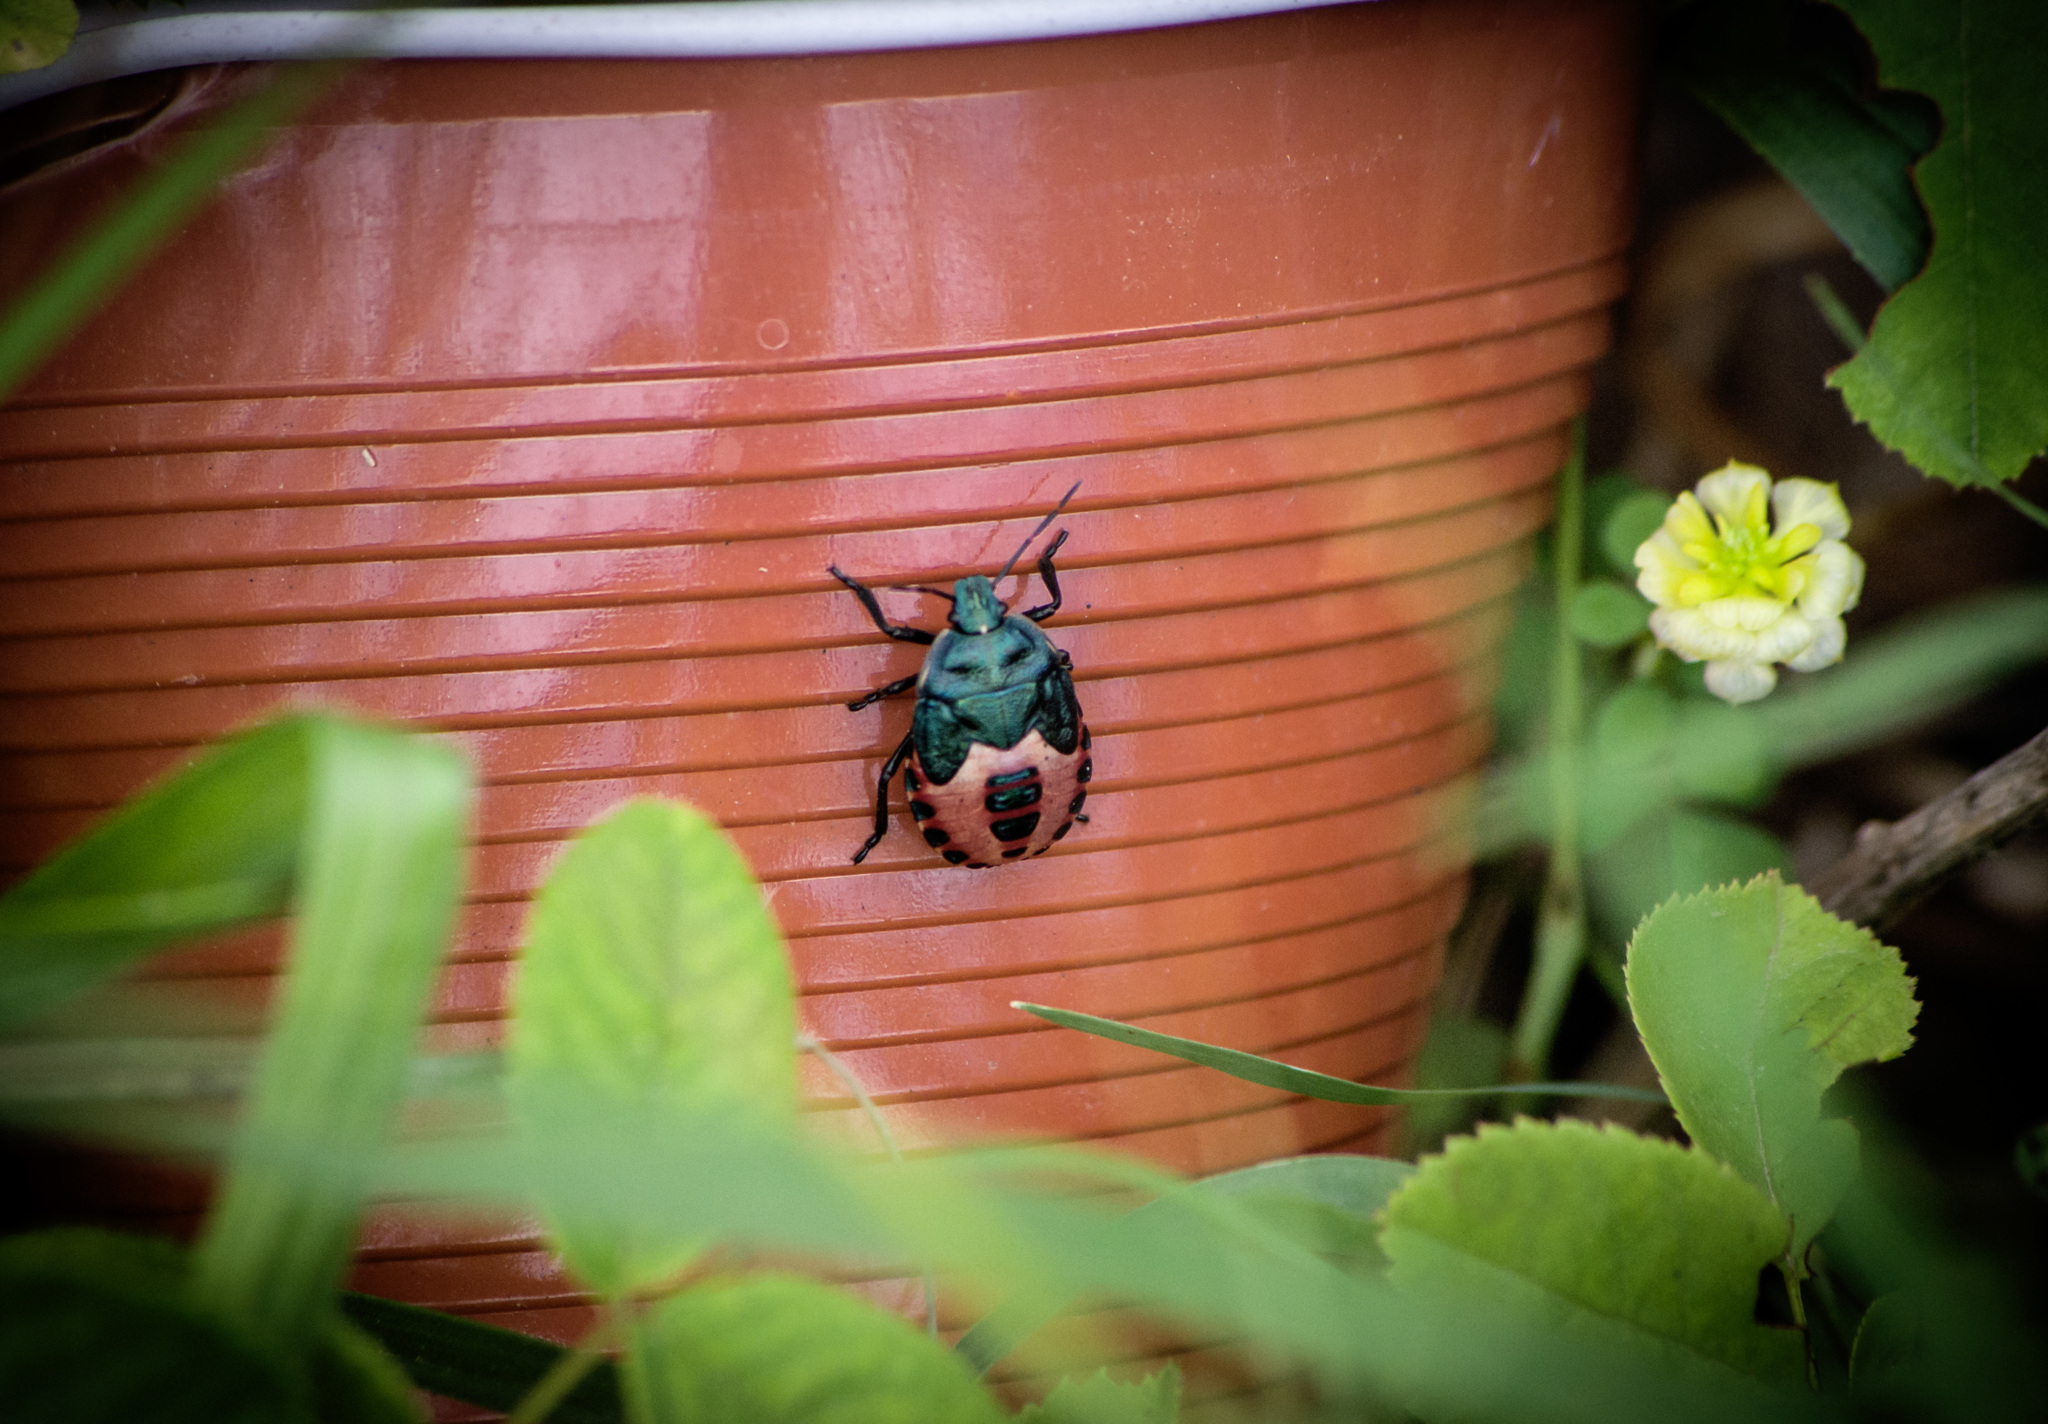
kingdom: Animalia
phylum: Arthropoda
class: Insecta
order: Hemiptera
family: Pentatomidae
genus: Jalla
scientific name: Jalla dumosa
